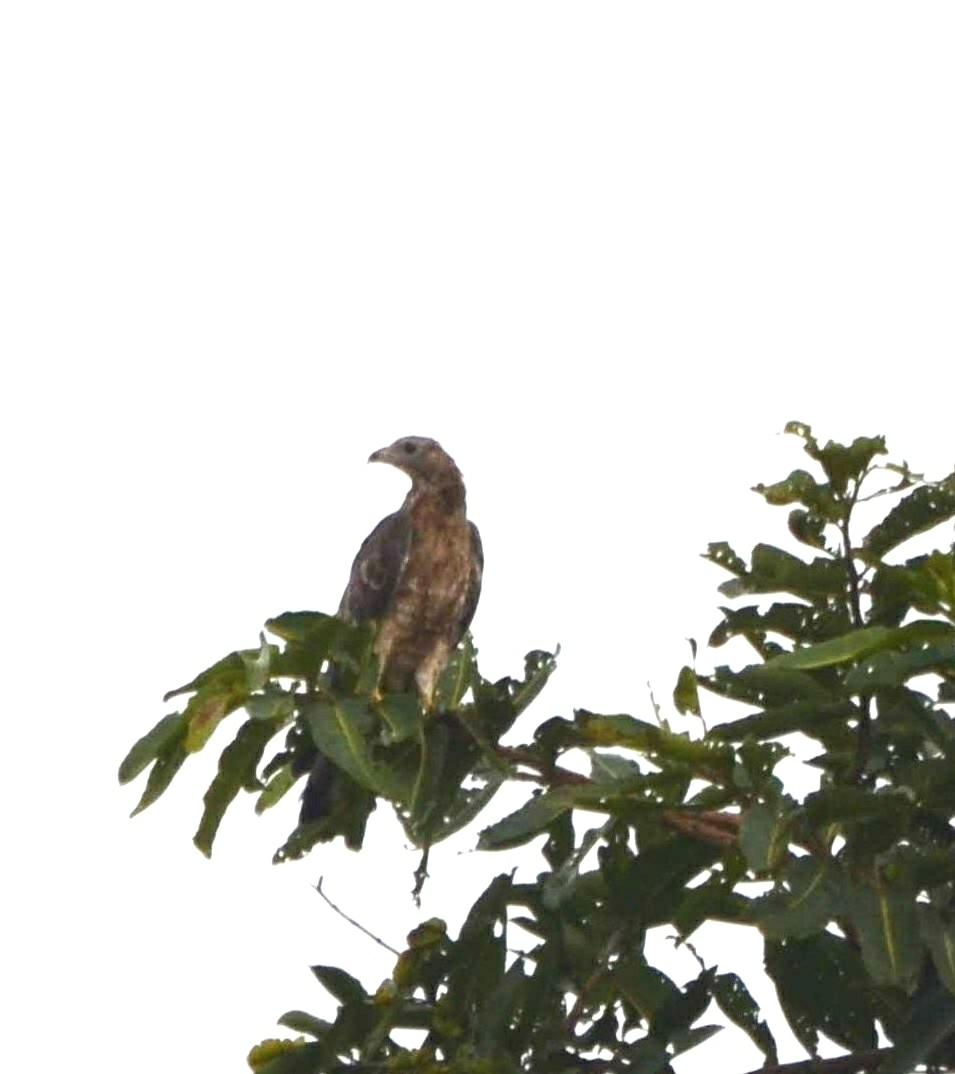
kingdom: Animalia
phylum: Chordata
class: Aves
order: Accipitriformes
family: Accipitridae
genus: Pernis
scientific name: Pernis ptilorhynchus
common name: Crested honey buzzard
